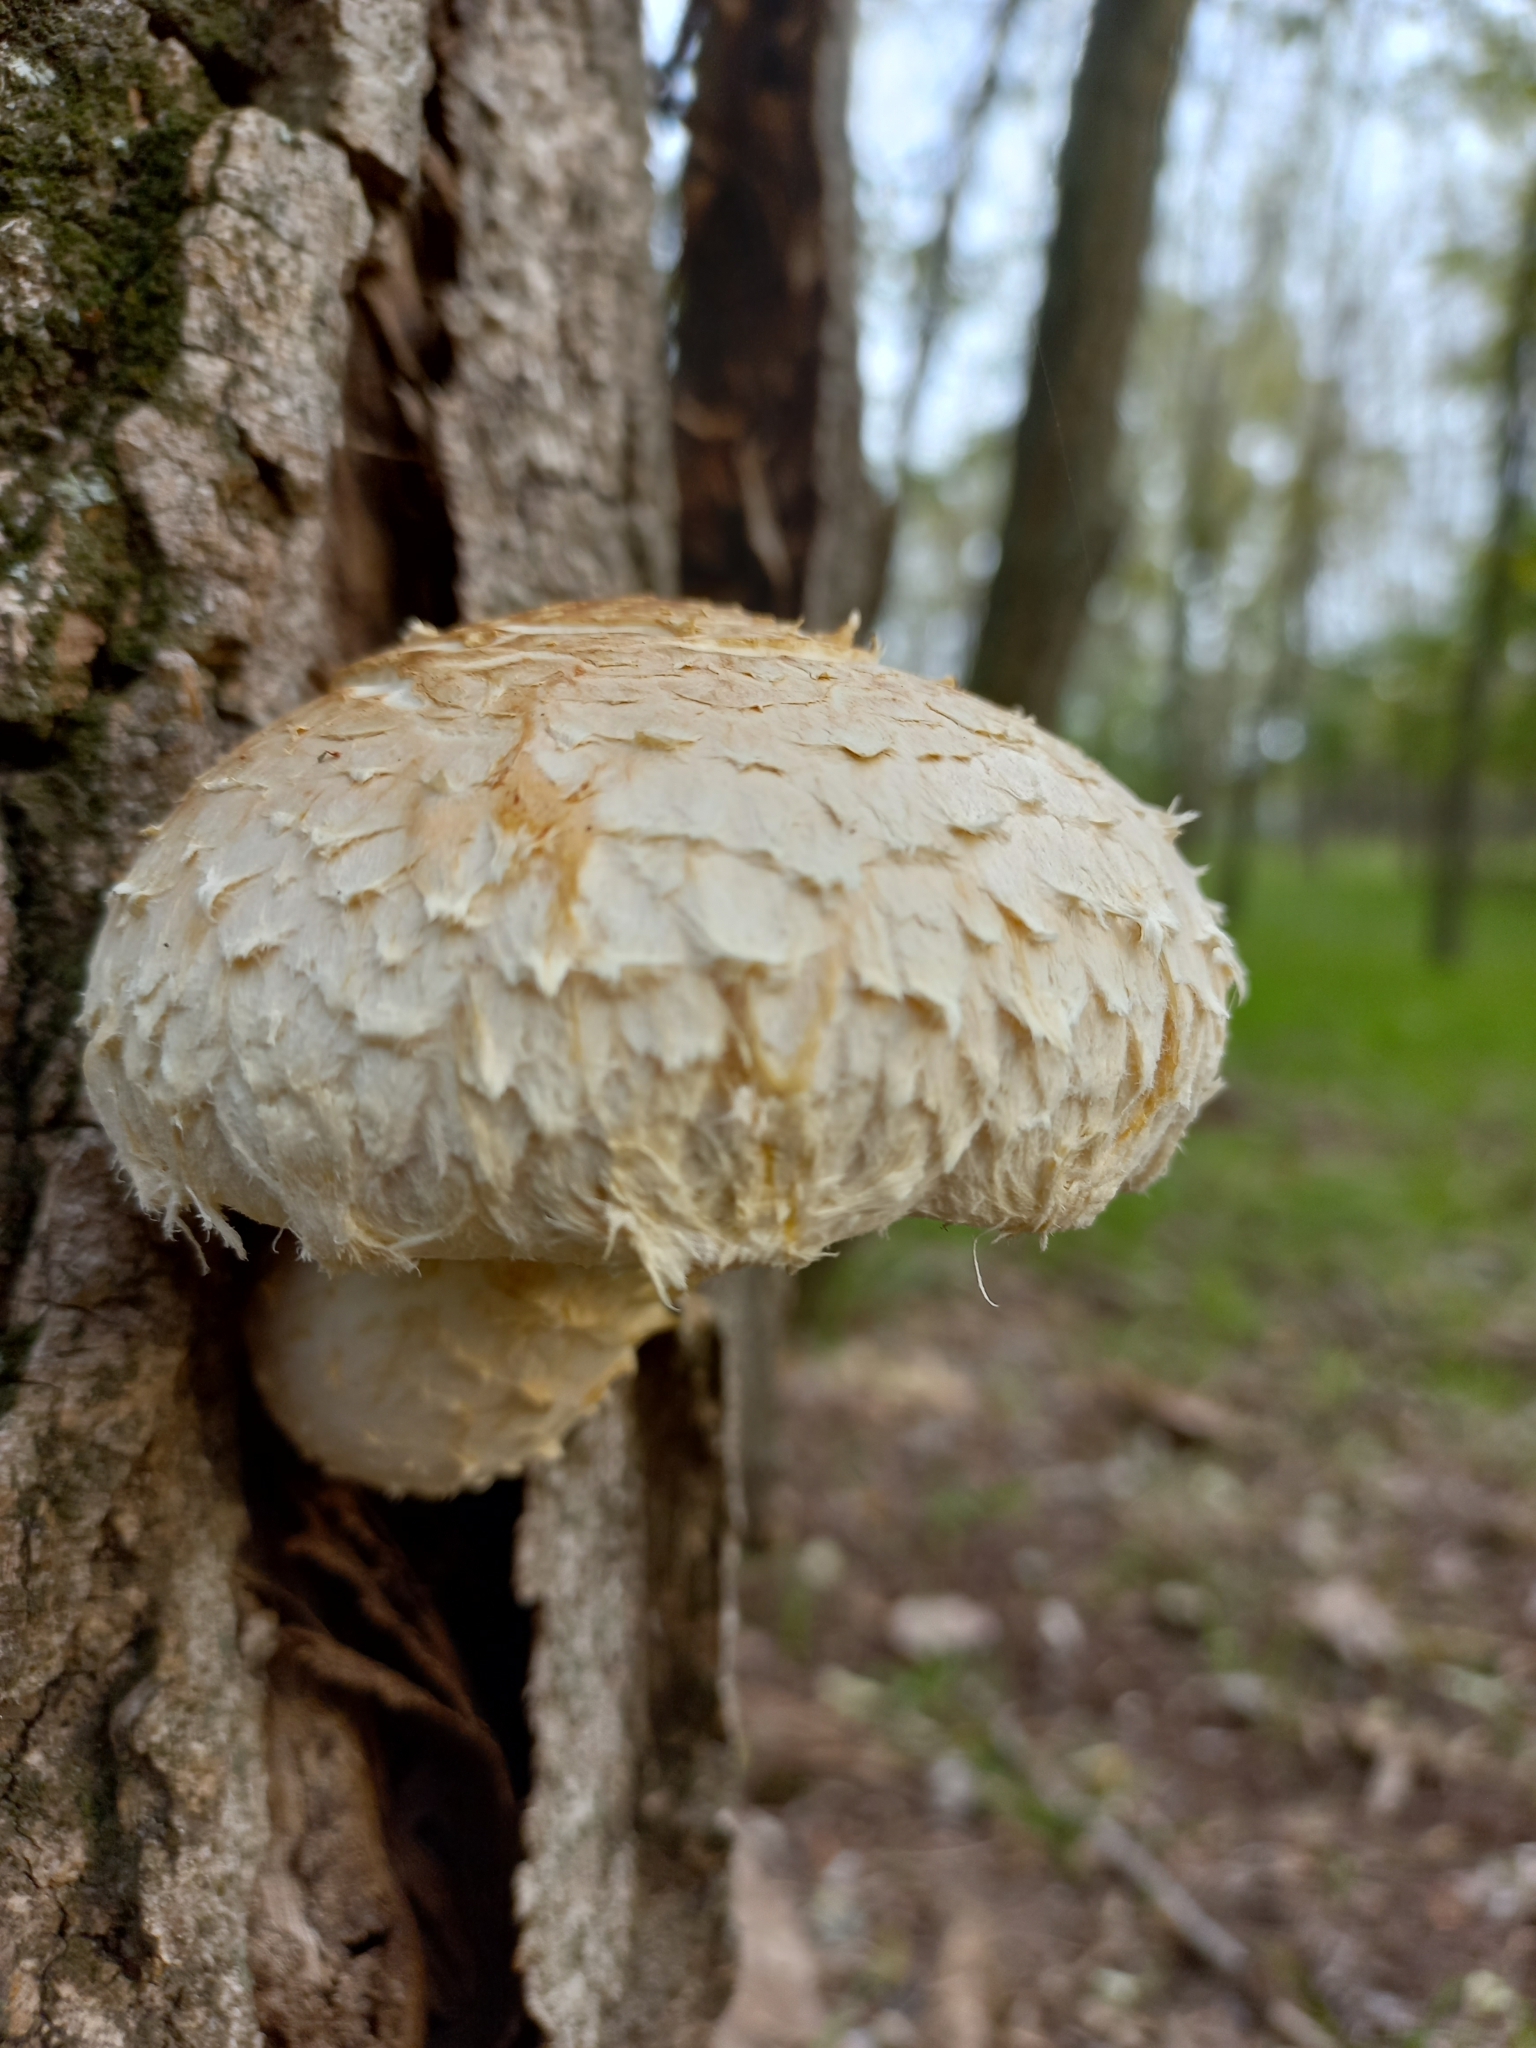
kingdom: Fungi
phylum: Basidiomycota
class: Agaricomycetes
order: Agaricales
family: Strophariaceae
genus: Pholiota
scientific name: Pholiota populnea
